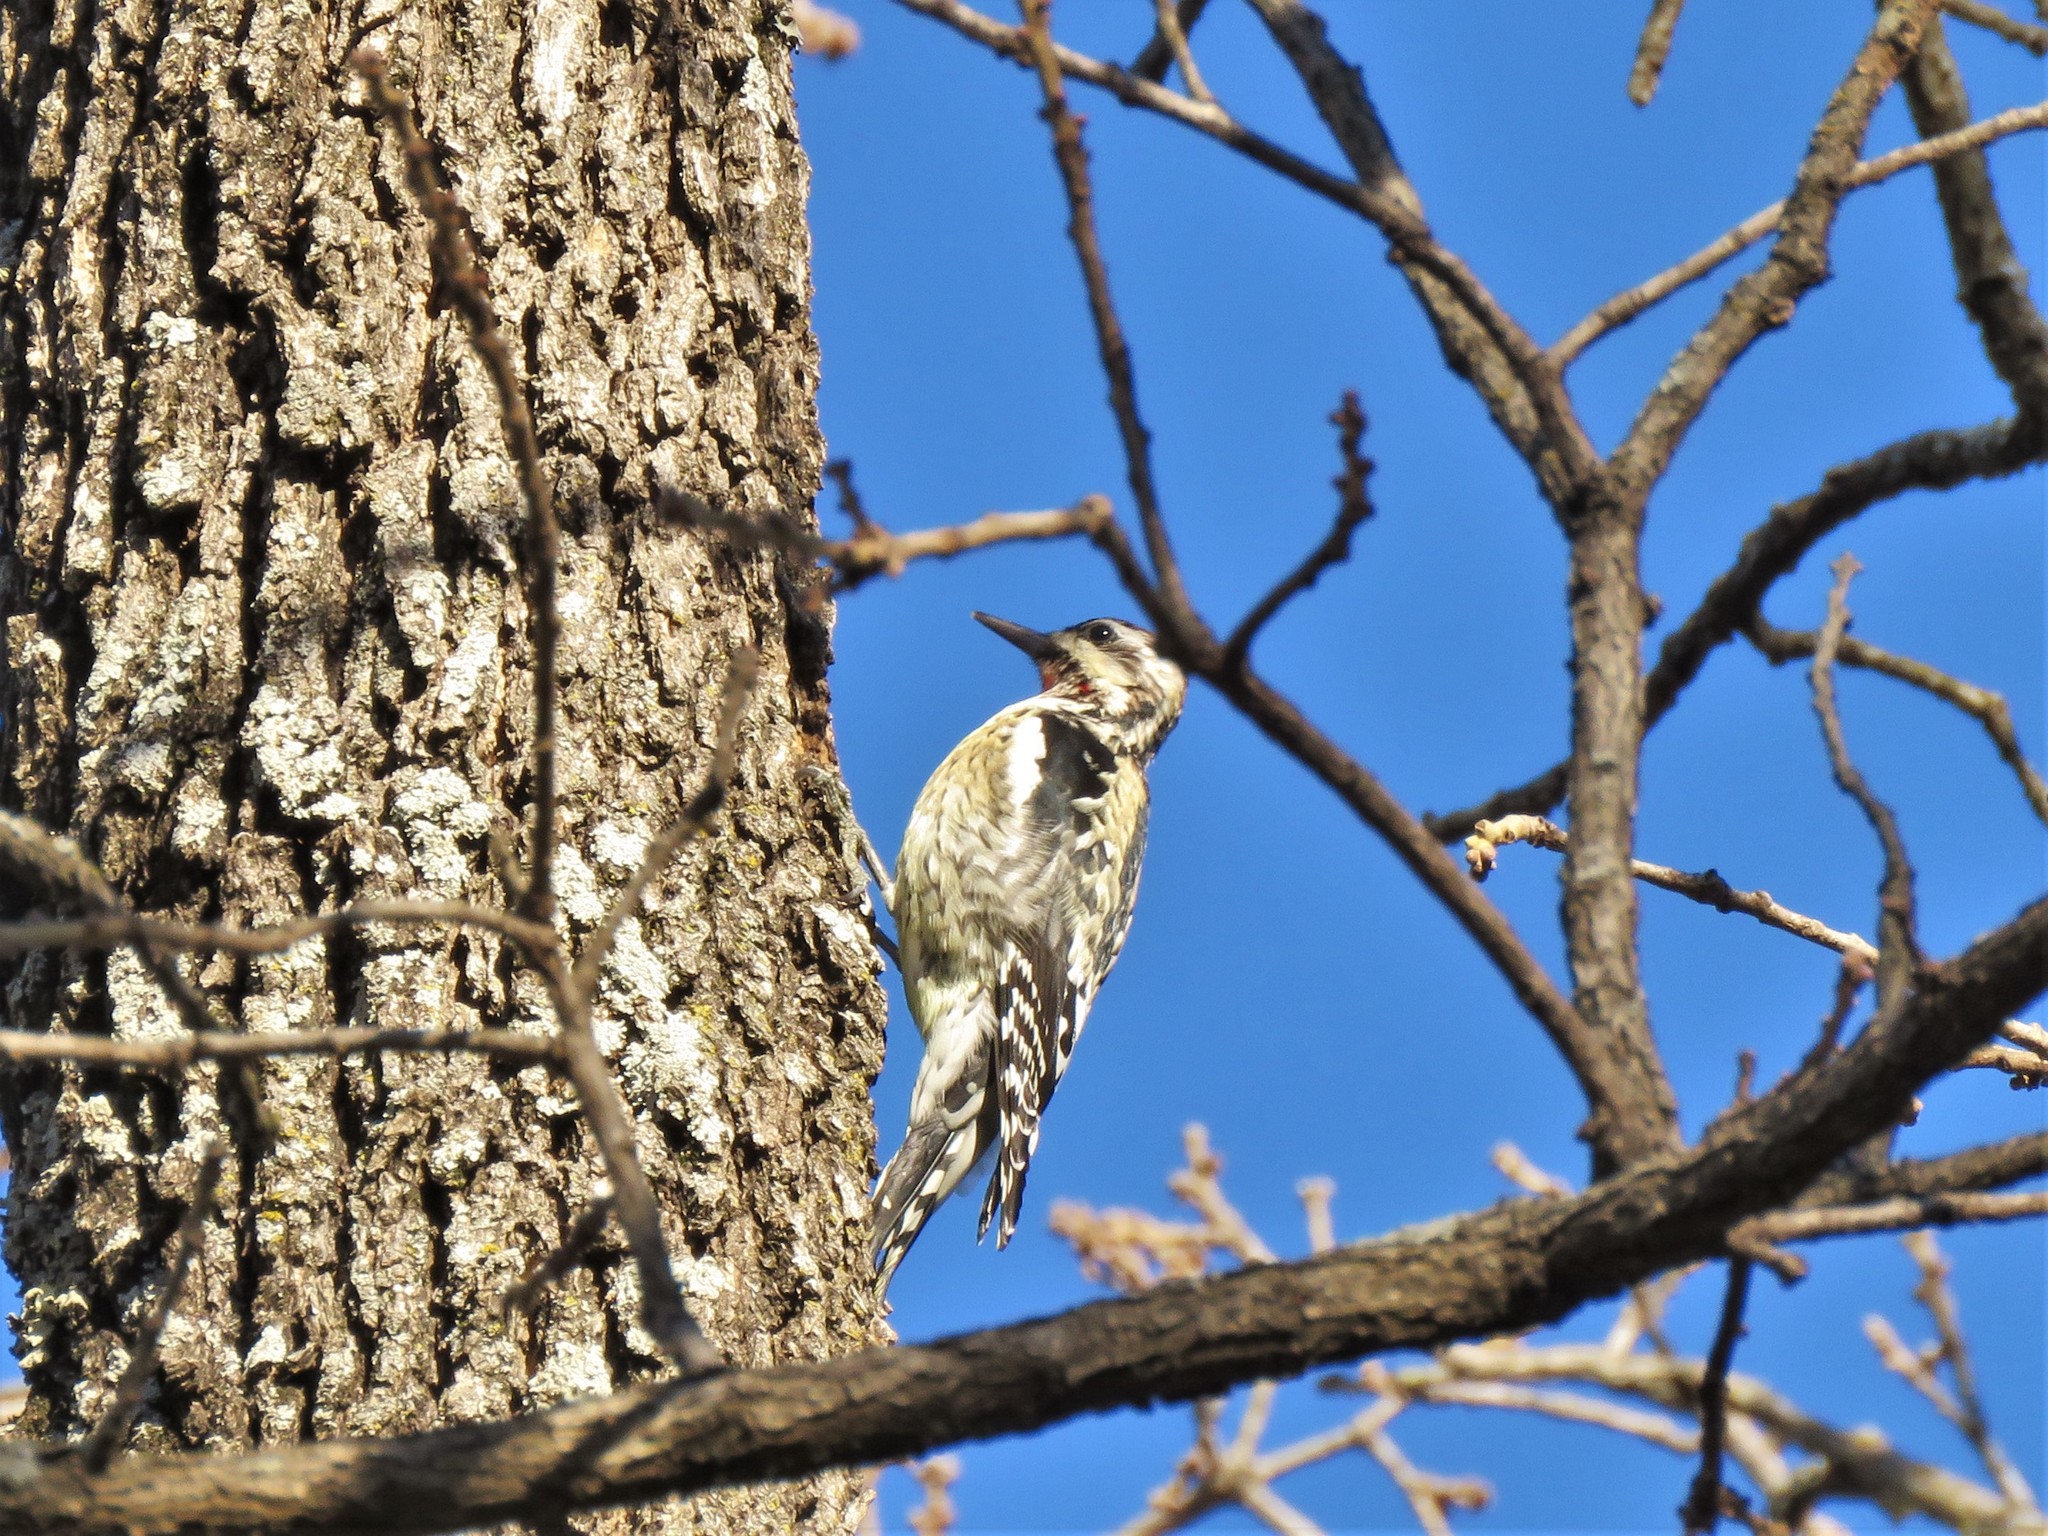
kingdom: Animalia
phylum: Chordata
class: Aves
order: Piciformes
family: Picidae
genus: Sphyrapicus
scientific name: Sphyrapicus varius
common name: Yellow-bellied sapsucker
